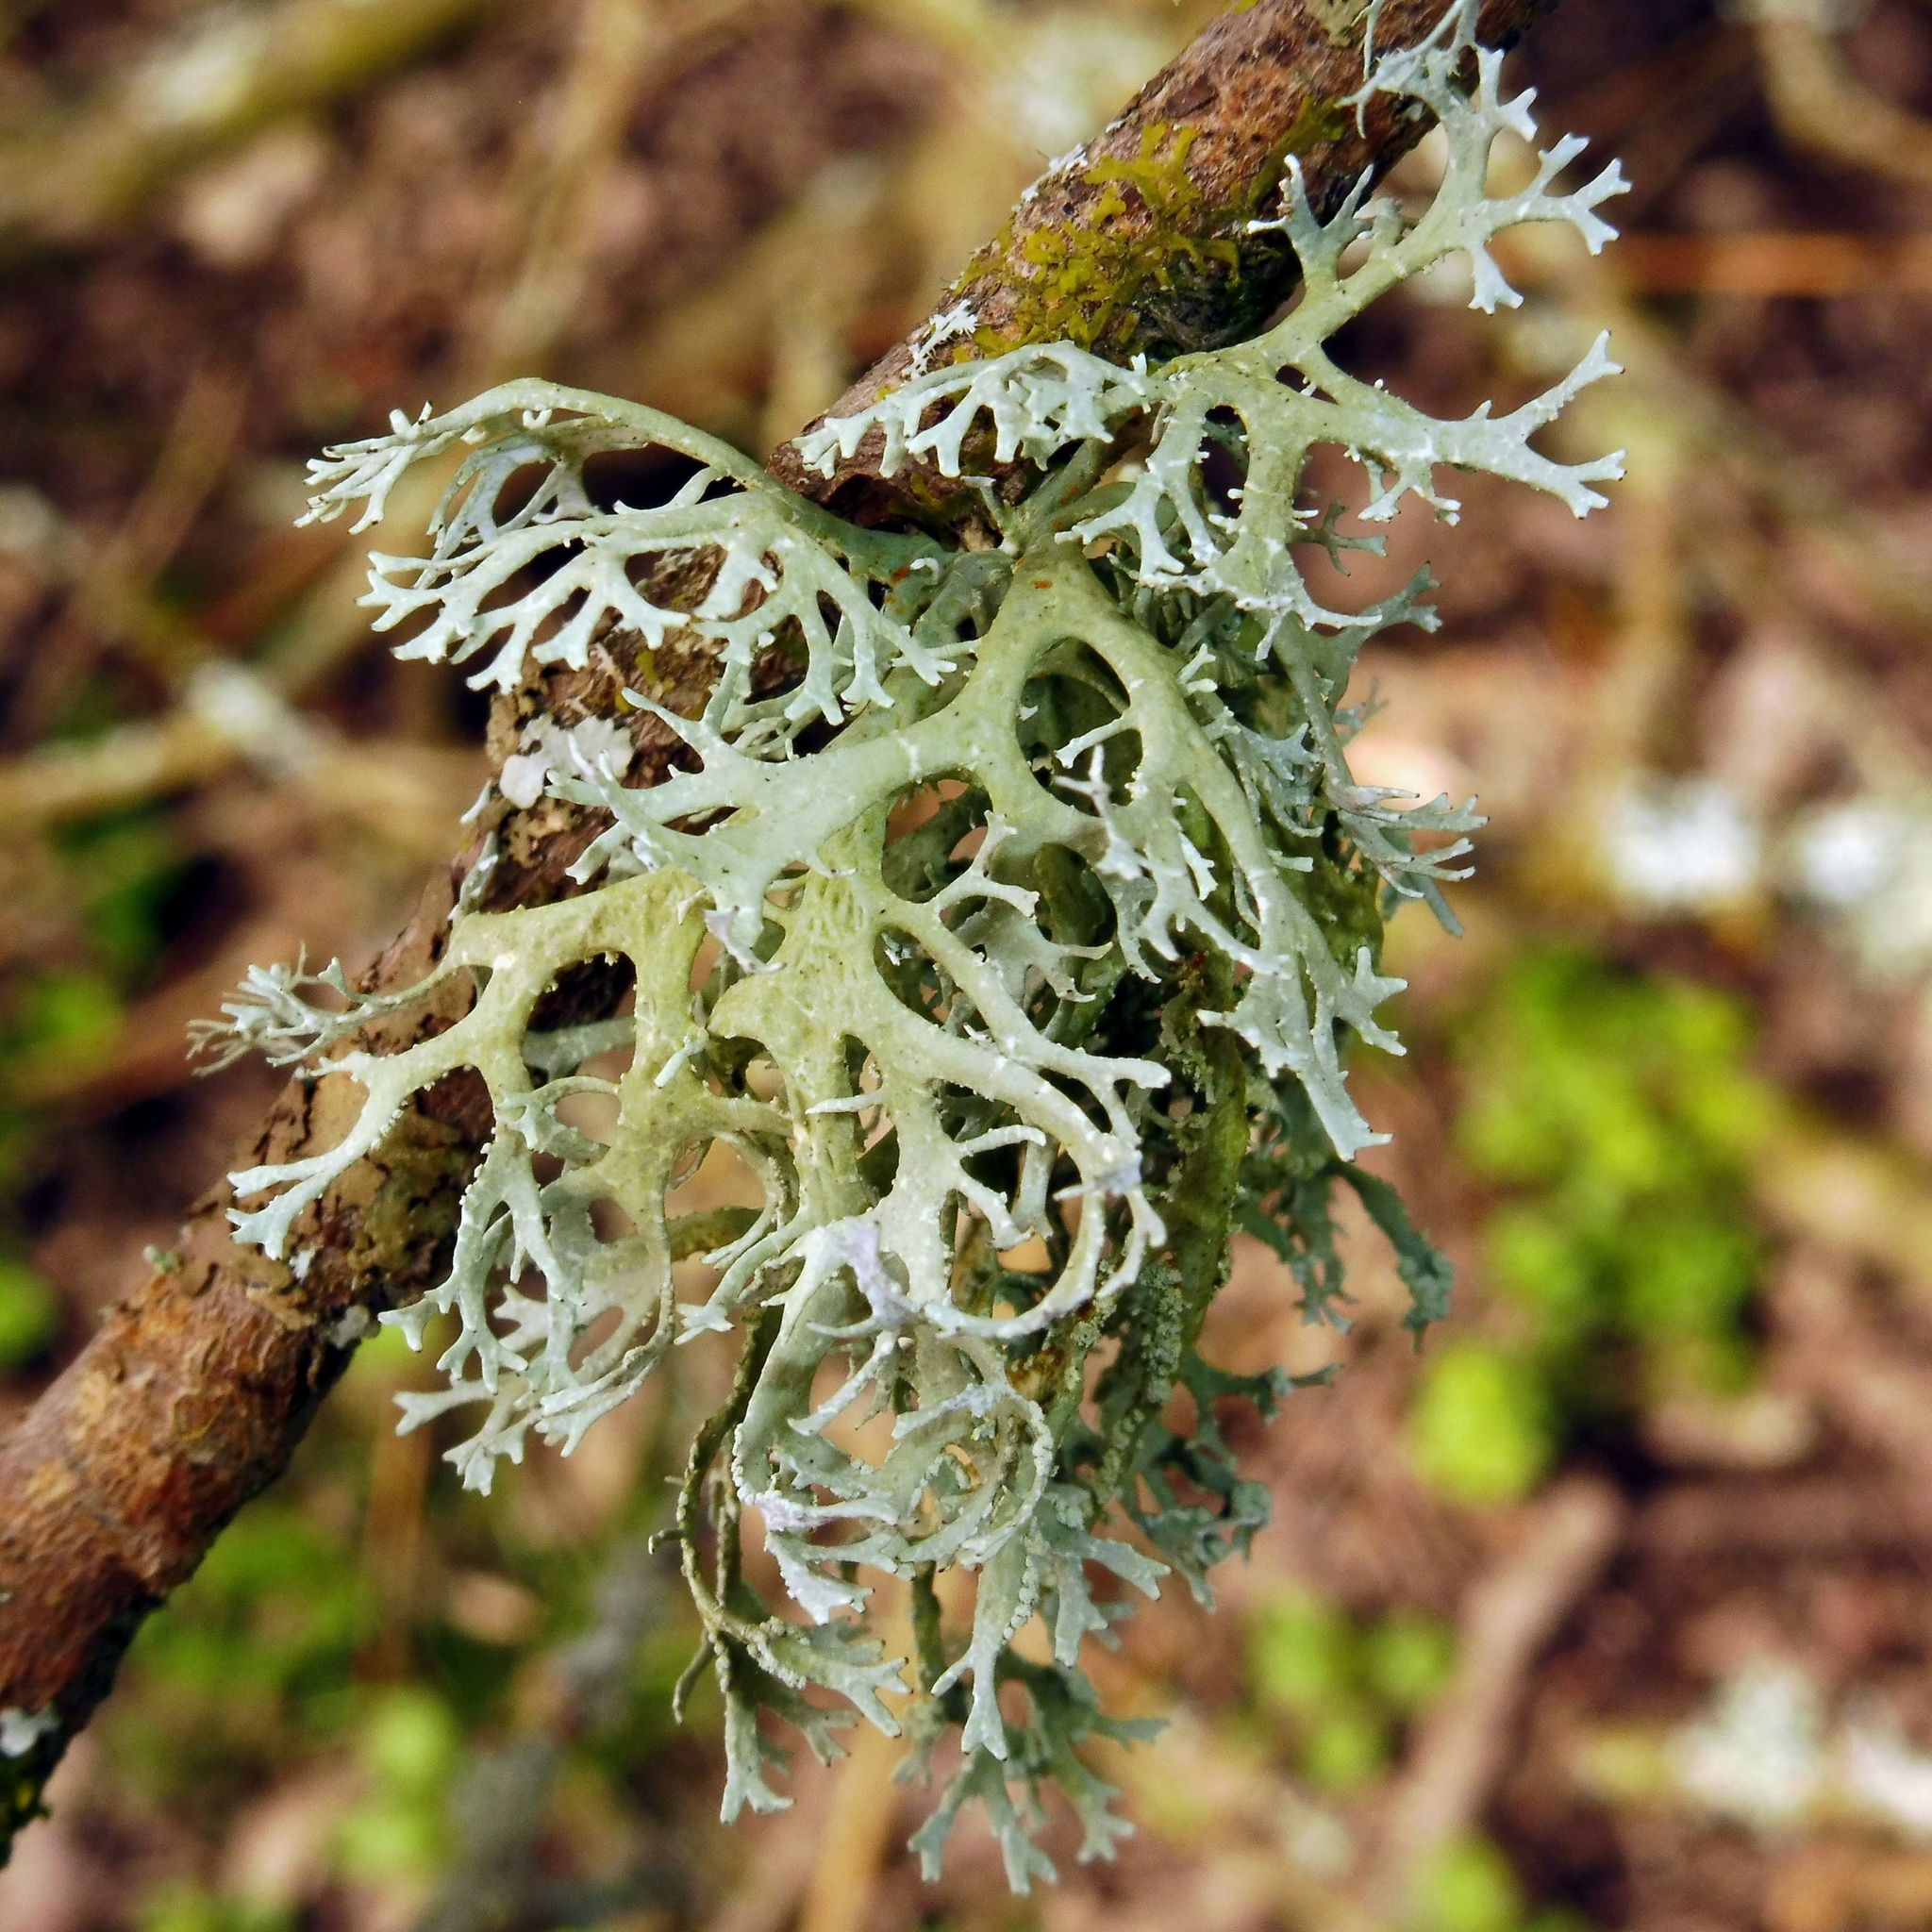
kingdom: Fungi
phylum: Ascomycota
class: Lecanoromycetes
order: Lecanorales
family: Parmeliaceae
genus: Evernia
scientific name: Evernia prunastri
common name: Oak moss
